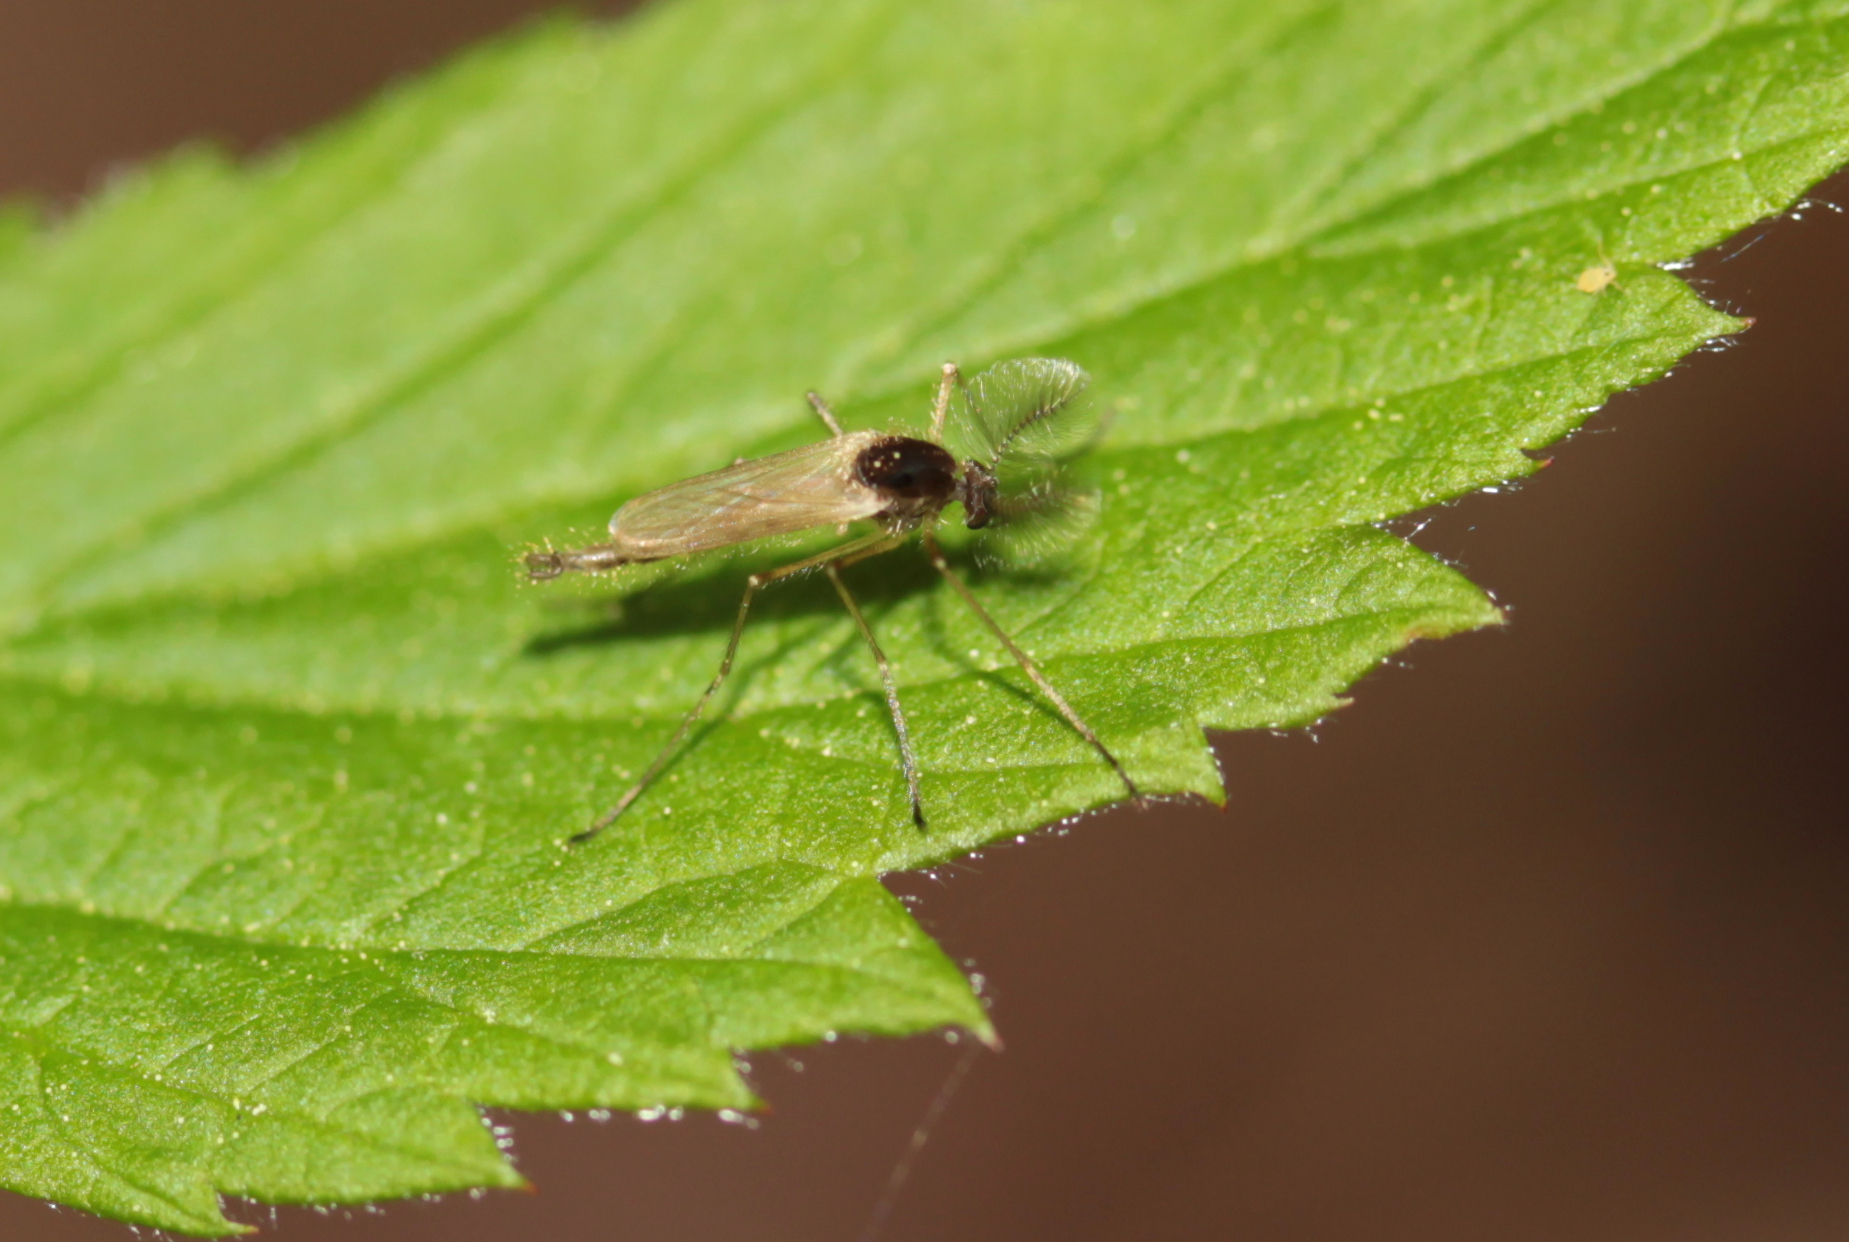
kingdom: Animalia
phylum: Arthropoda
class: Insecta
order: Diptera
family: Chaoboridae
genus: Mochlonyx
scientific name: Mochlonyx velutinus
